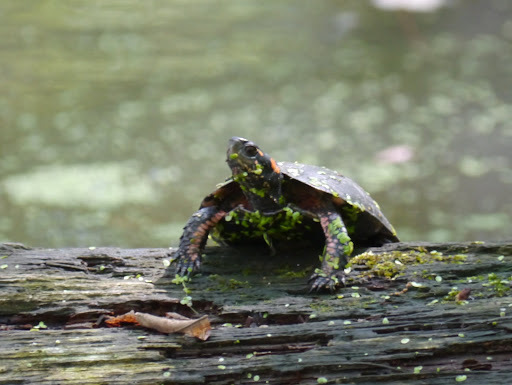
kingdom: Animalia
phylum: Chordata
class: Testudines
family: Emydidae
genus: Clemmys
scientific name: Clemmys guttata
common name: Spotted turtle
